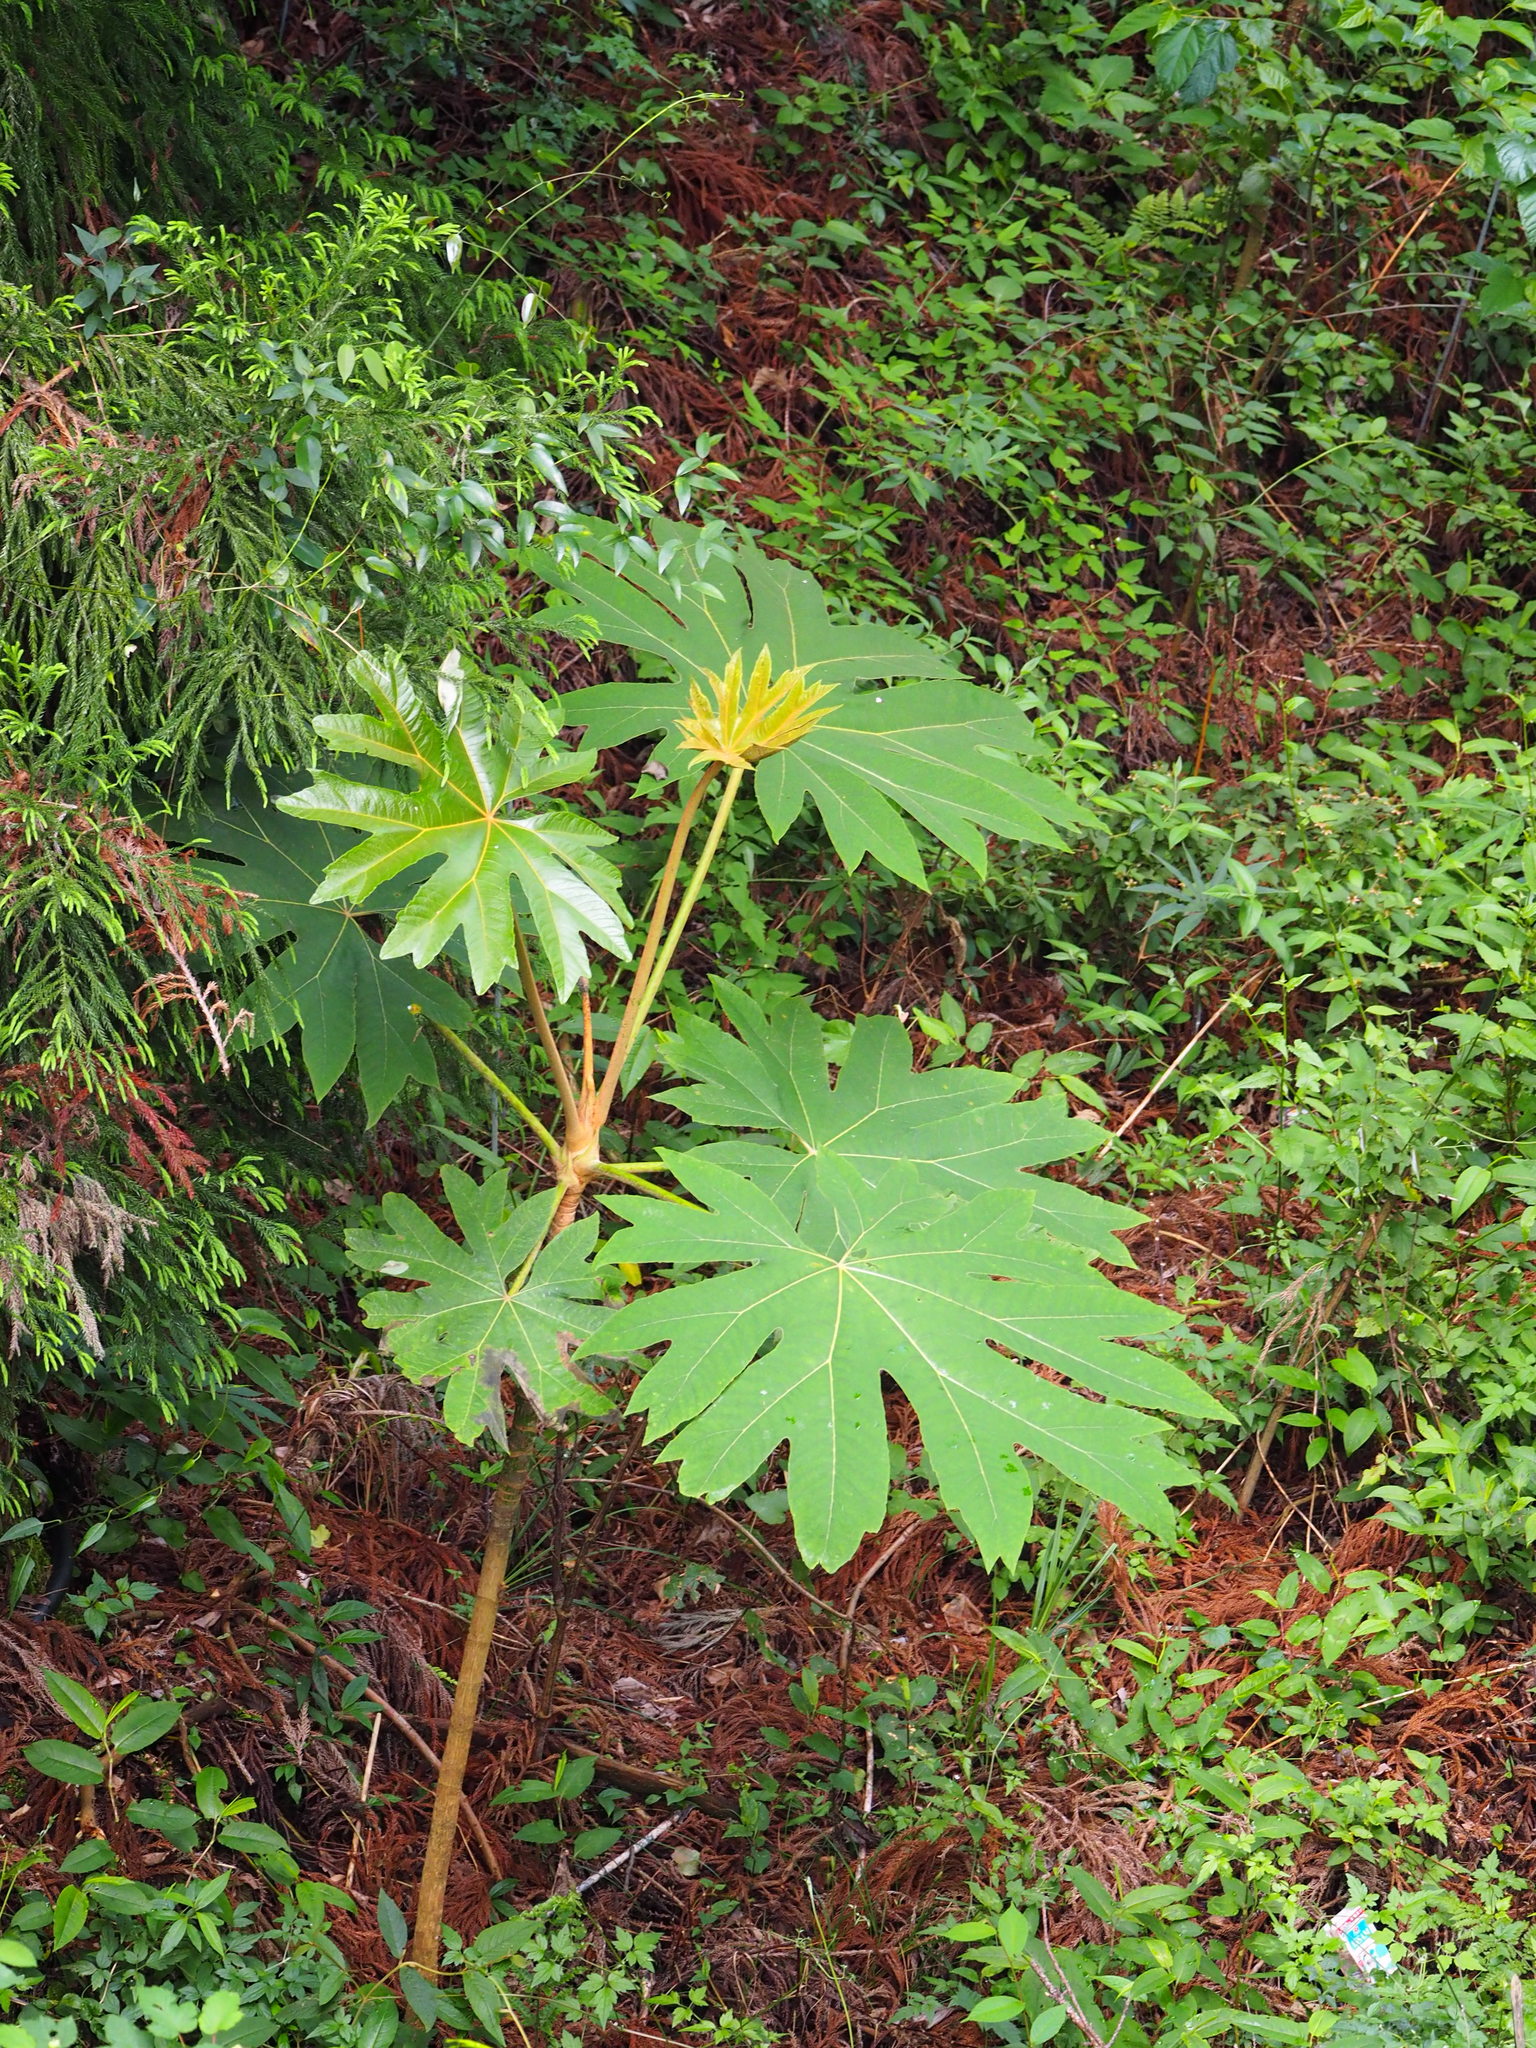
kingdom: Plantae
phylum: Tracheophyta
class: Magnoliopsida
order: Apiales
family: Araliaceae
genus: Tetrapanax
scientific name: Tetrapanax papyrifer
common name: Rice-paper plant
